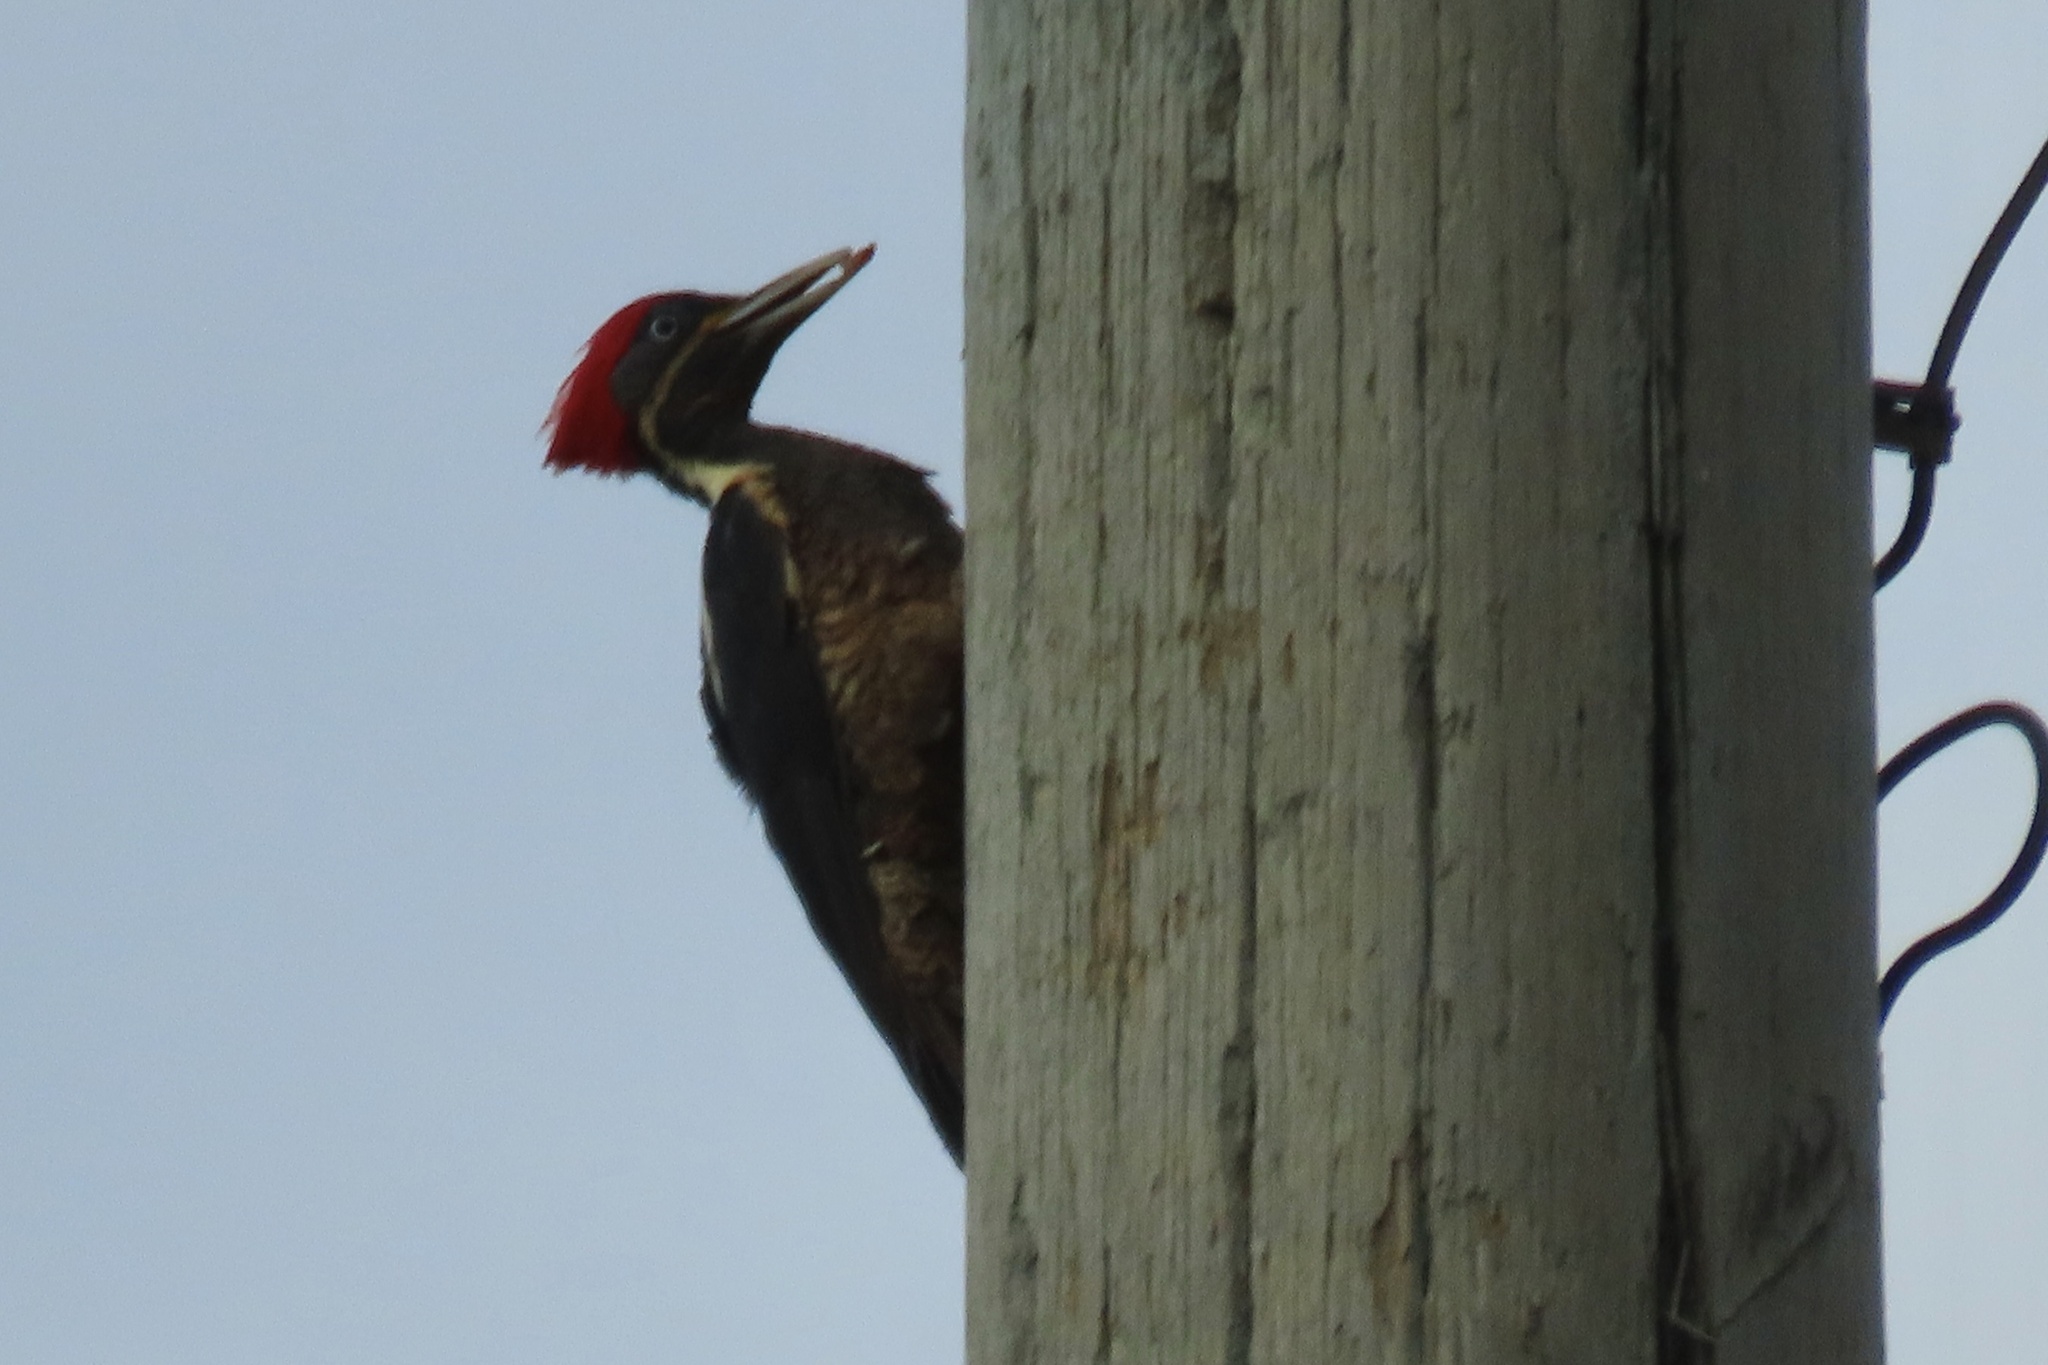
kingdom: Animalia
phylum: Chordata
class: Aves
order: Piciformes
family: Picidae
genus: Dryocopus
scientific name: Dryocopus lineatus
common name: Lineated woodpecker
